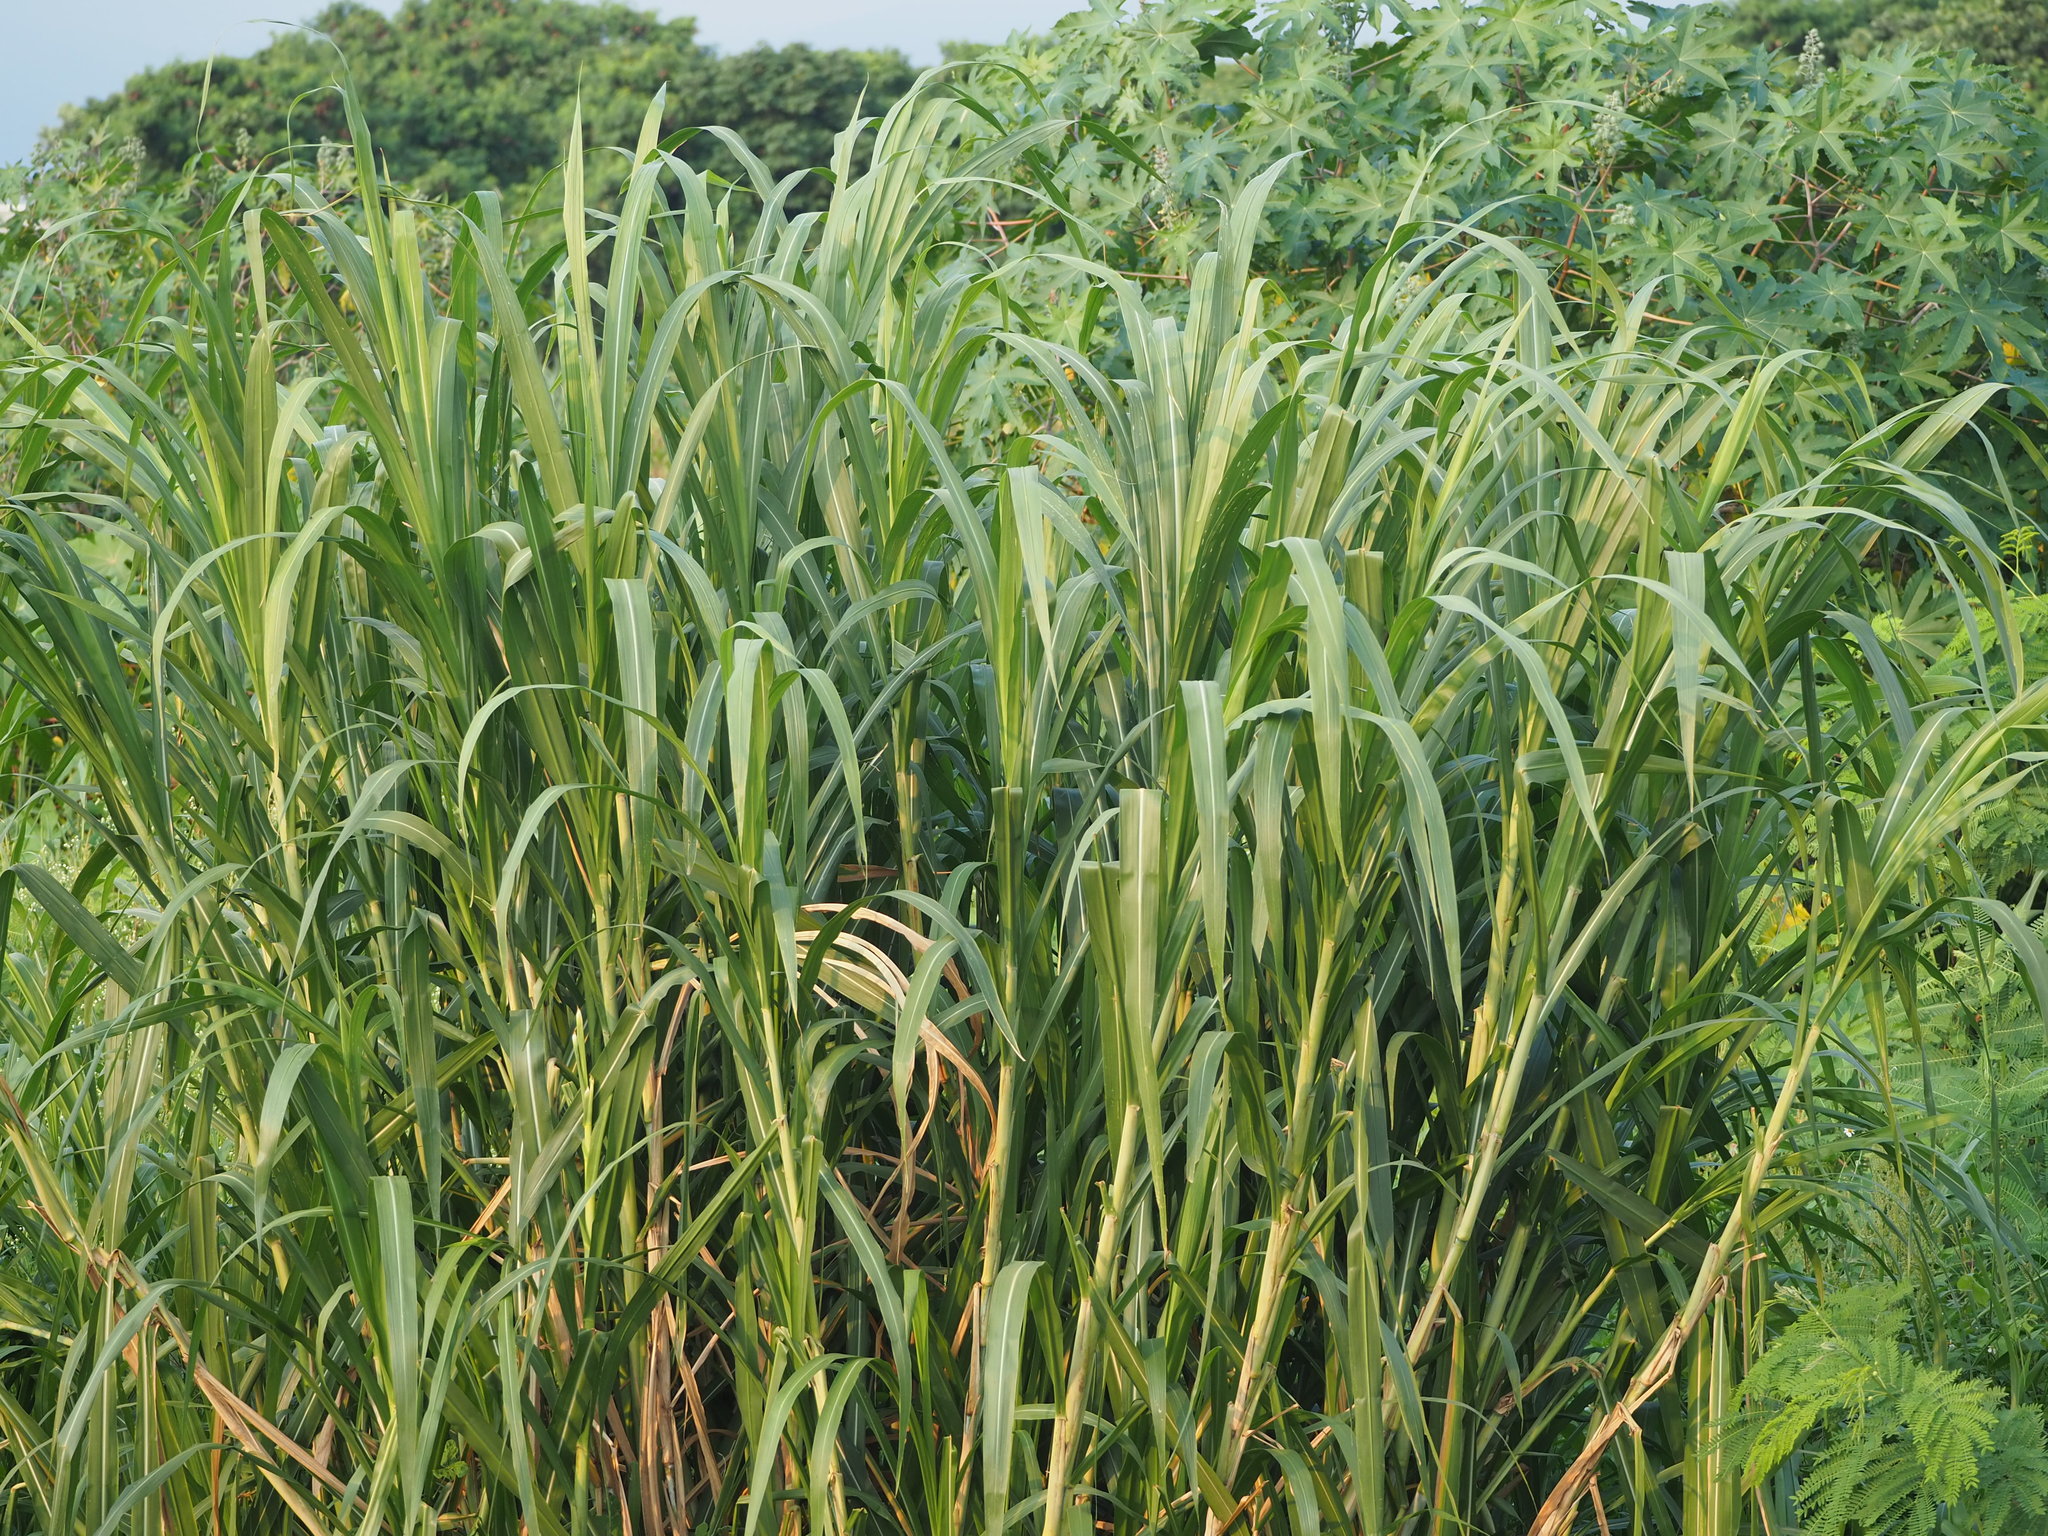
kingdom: Plantae
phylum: Tracheophyta
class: Liliopsida
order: Poales
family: Poaceae
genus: Cenchrus
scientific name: Cenchrus purpureus
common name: Elephant grass
